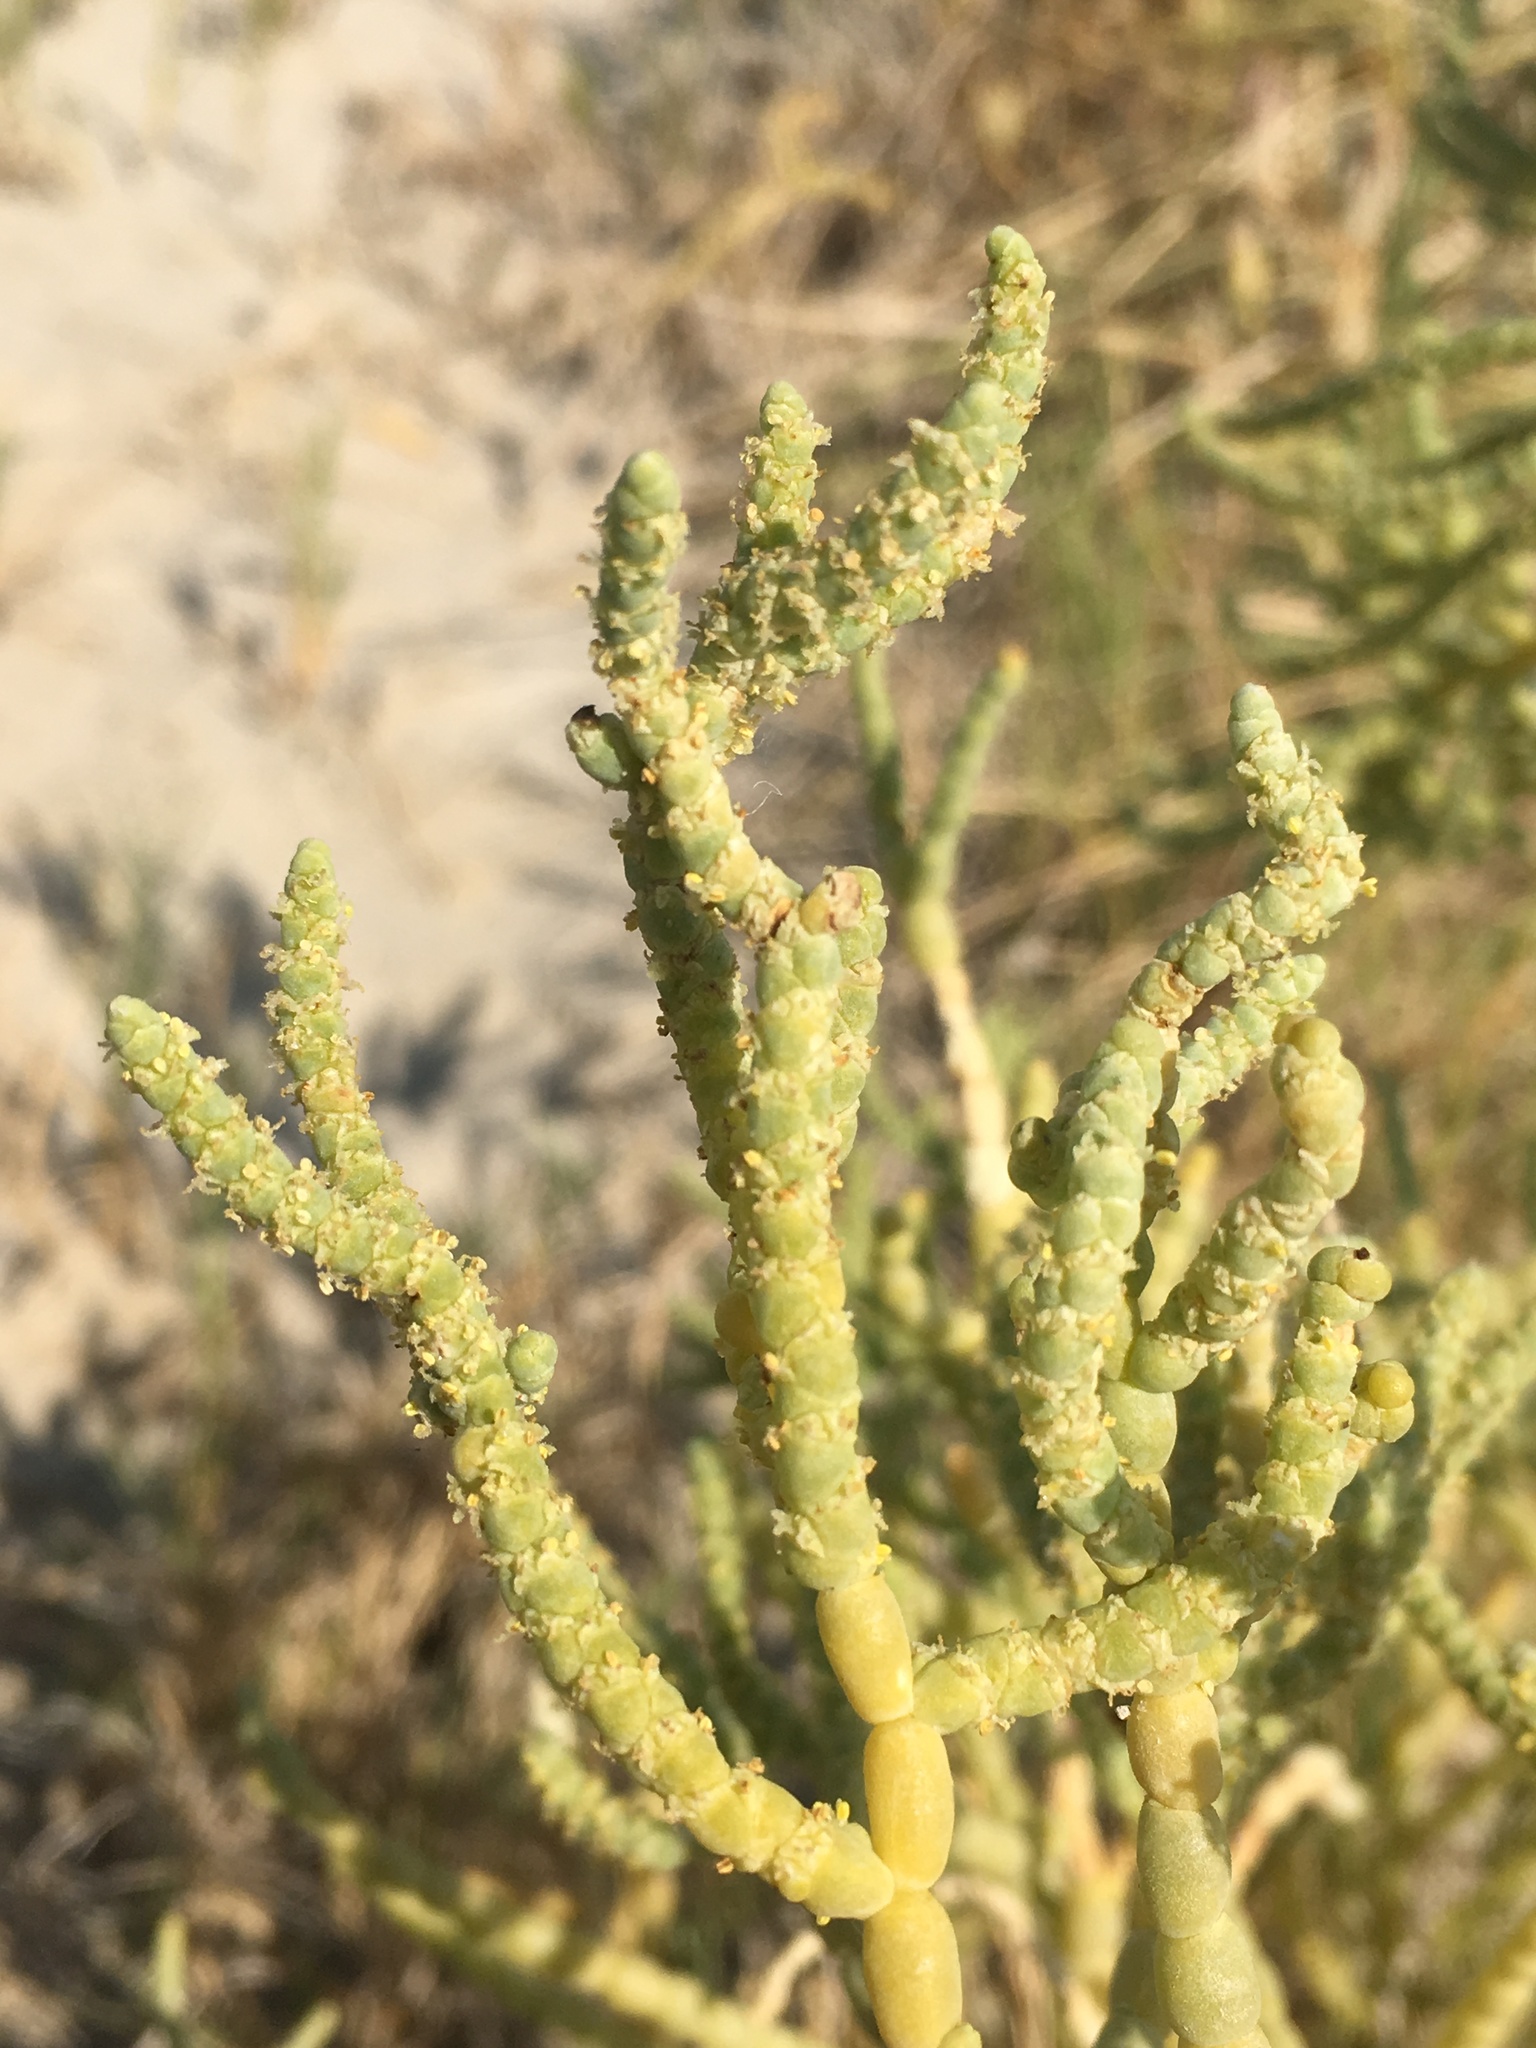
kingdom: Plantae
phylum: Tracheophyta
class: Magnoliopsida
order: Caryophyllales
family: Amaranthaceae
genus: Allenrolfea
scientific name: Allenrolfea occidentalis
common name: Iodine-bush
